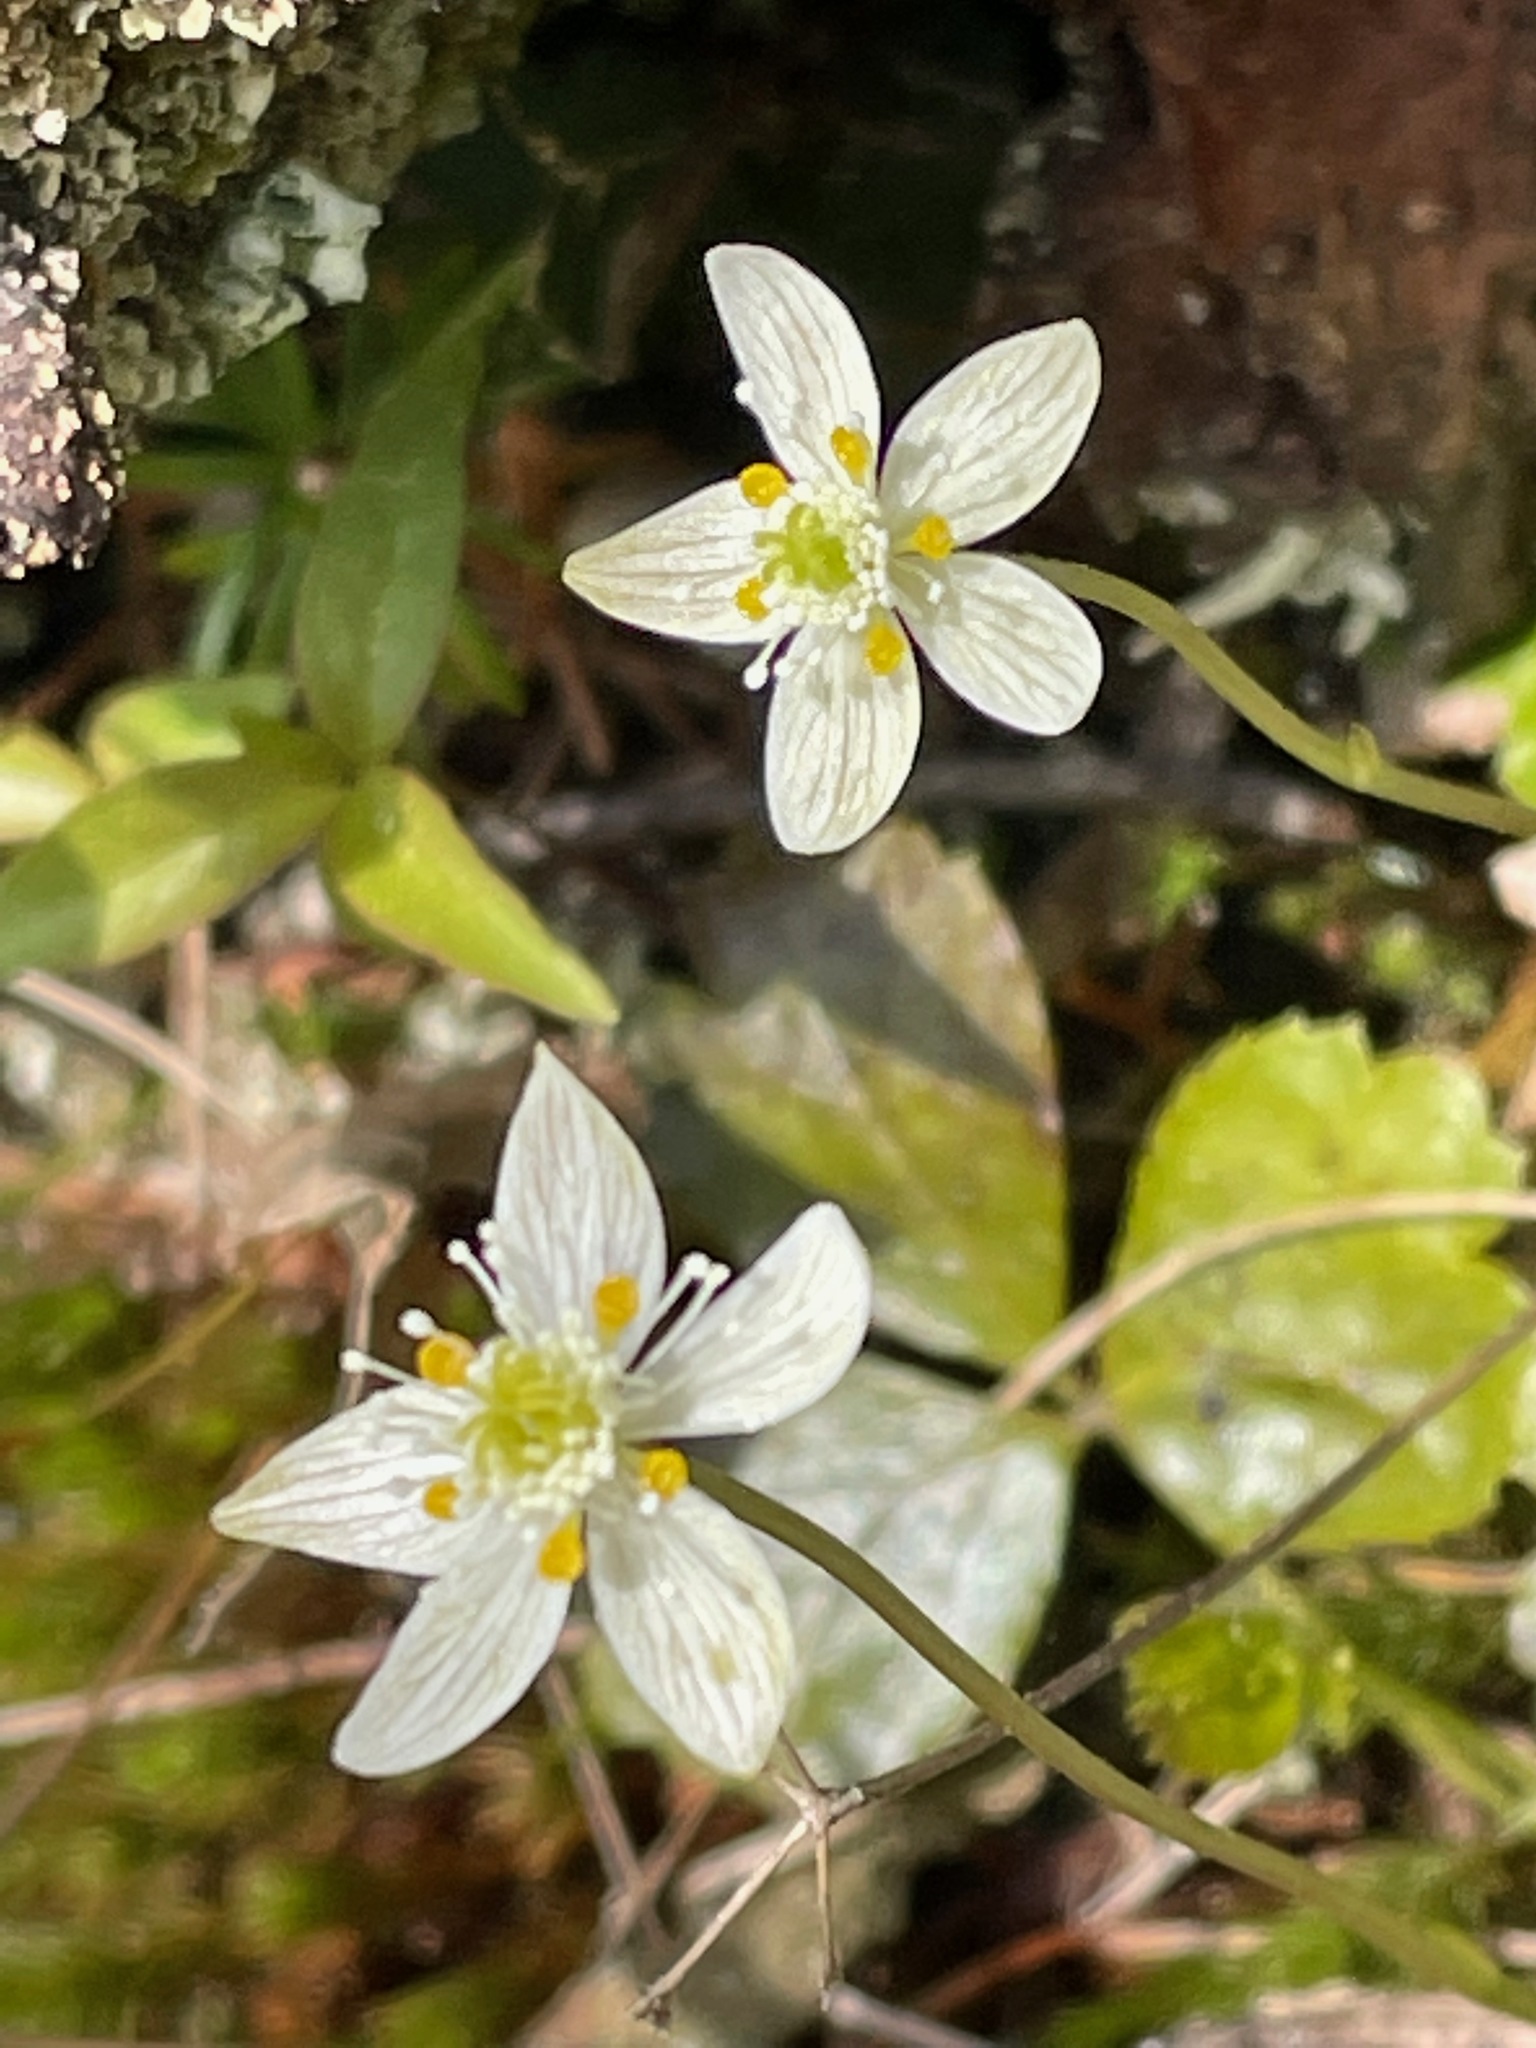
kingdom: Plantae
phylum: Tracheophyta
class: Magnoliopsida
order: Ranunculales
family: Ranunculaceae
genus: Coptis
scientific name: Coptis trifolia
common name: Canker-root
